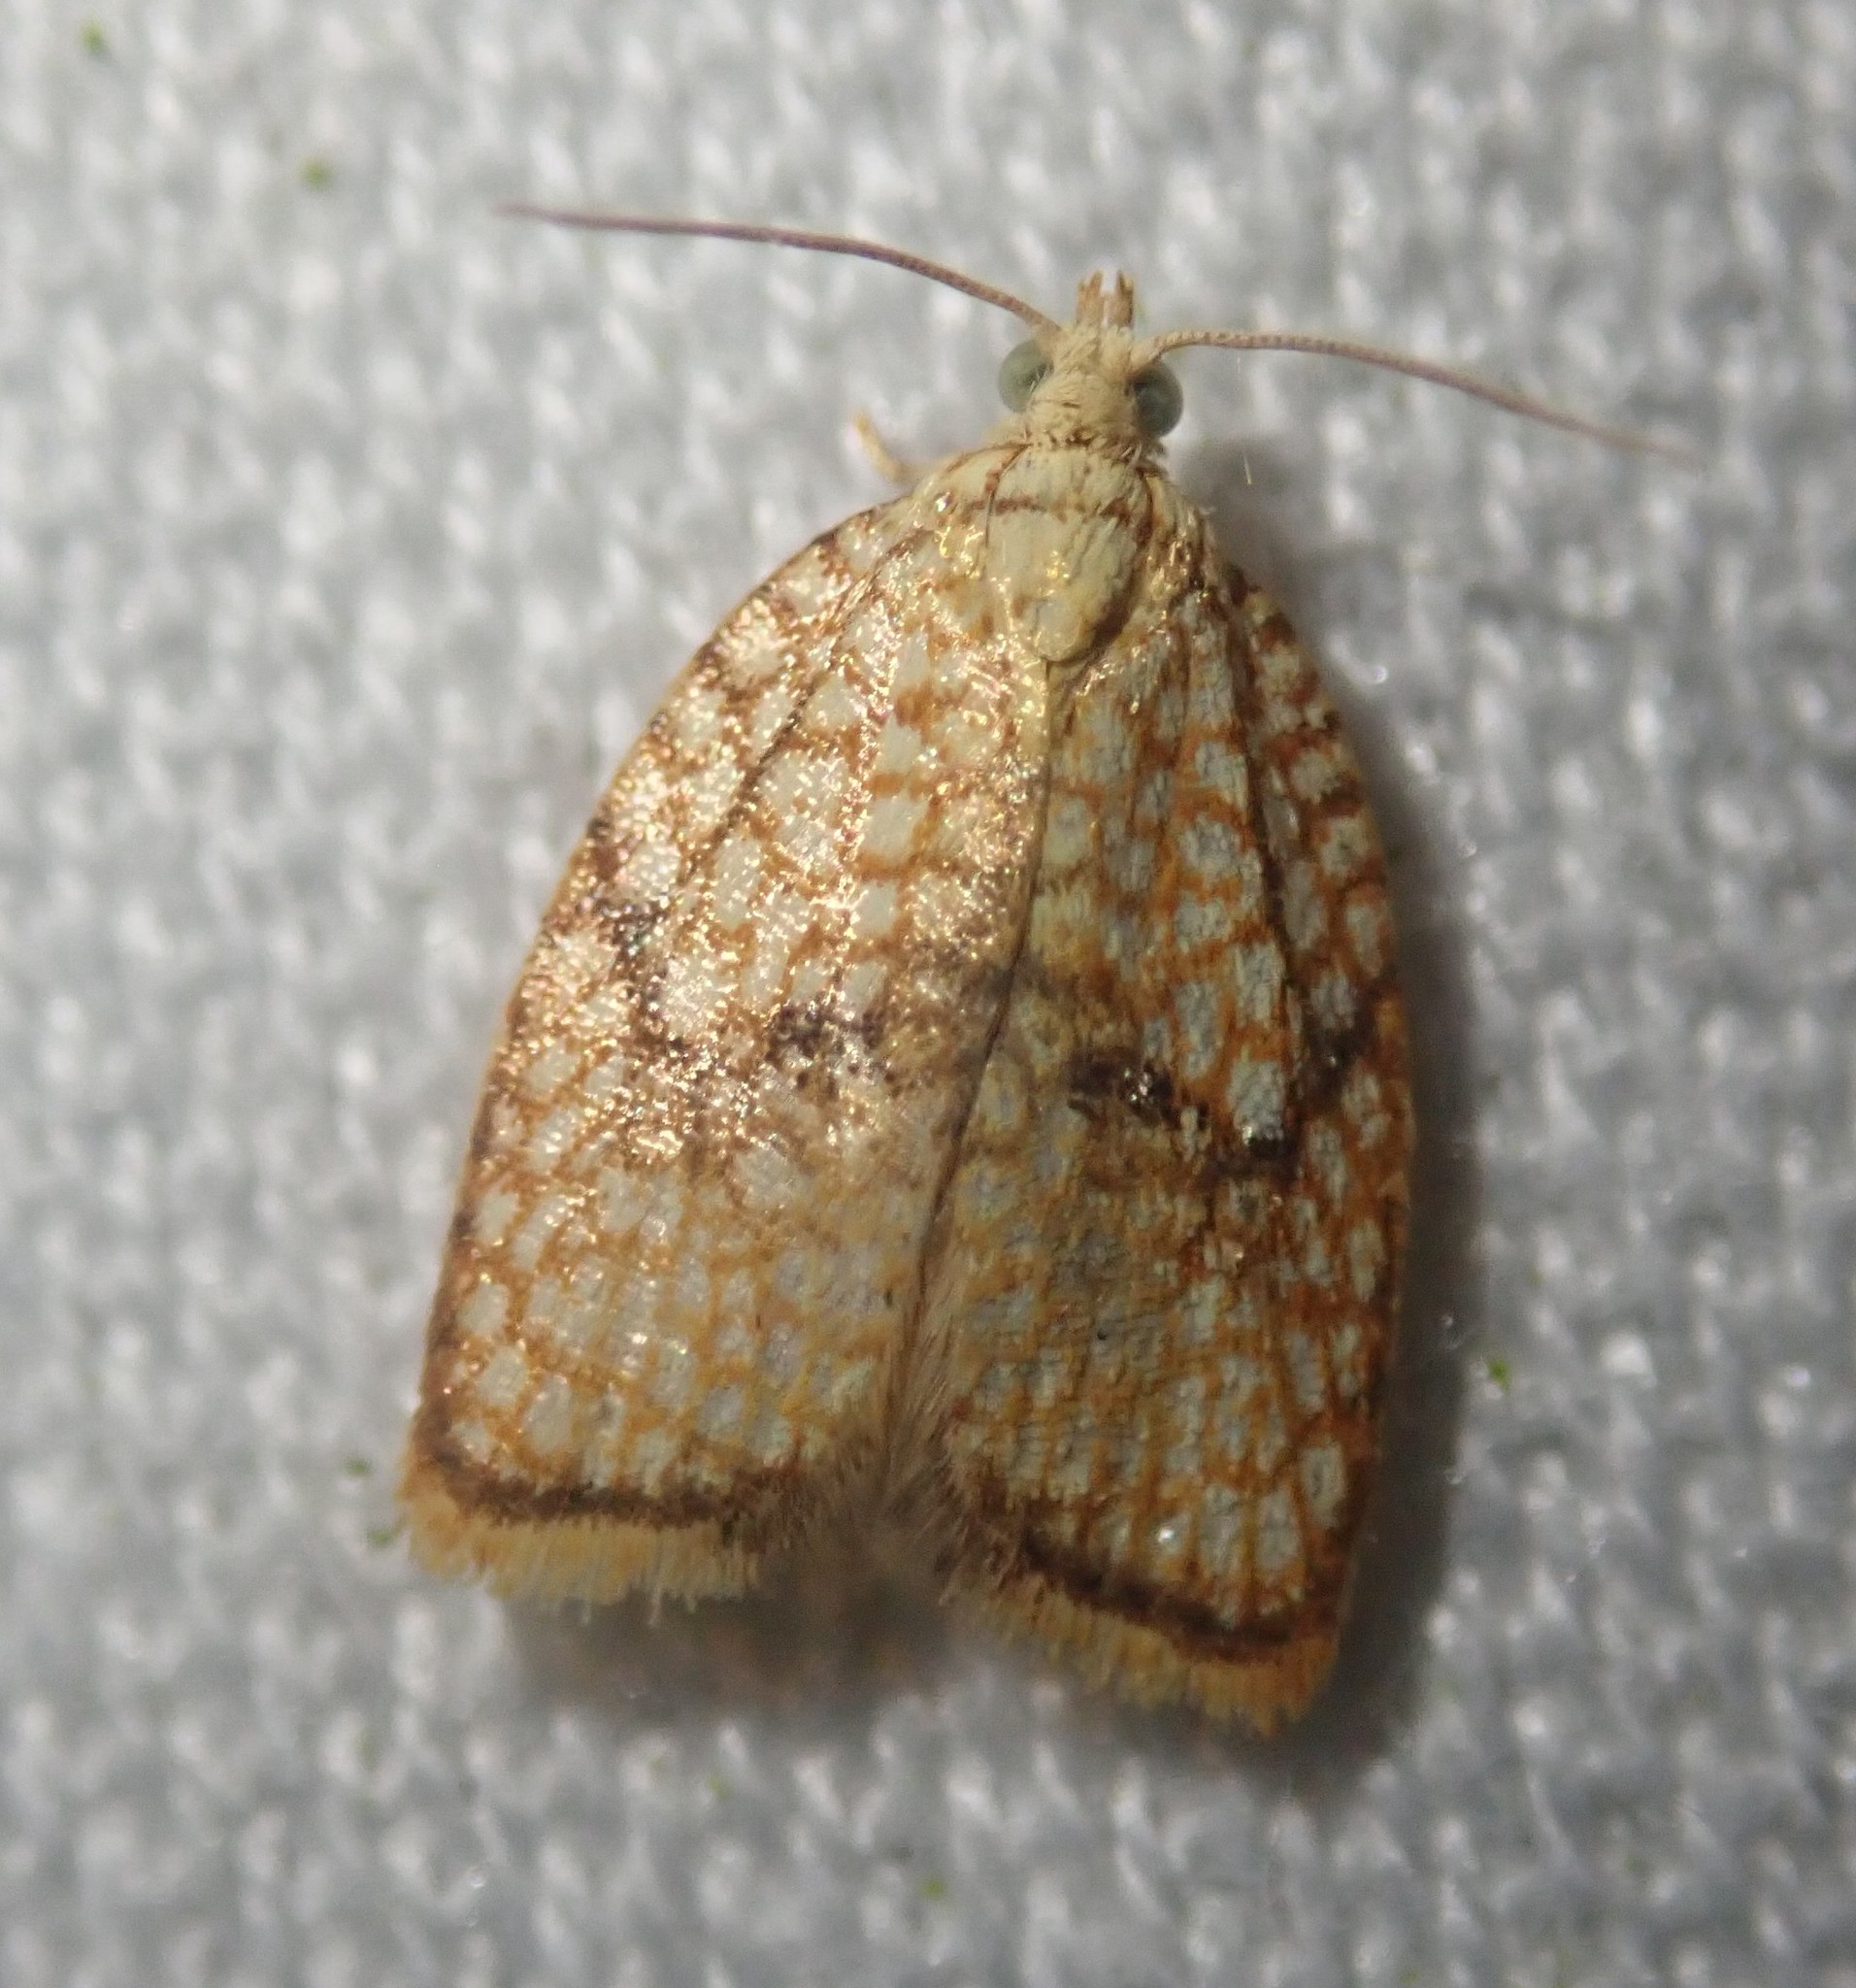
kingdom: Animalia
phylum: Arthropoda
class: Insecta
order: Lepidoptera
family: Tortricidae
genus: Acleris
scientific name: Acleris forsskaleana
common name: Maple button
